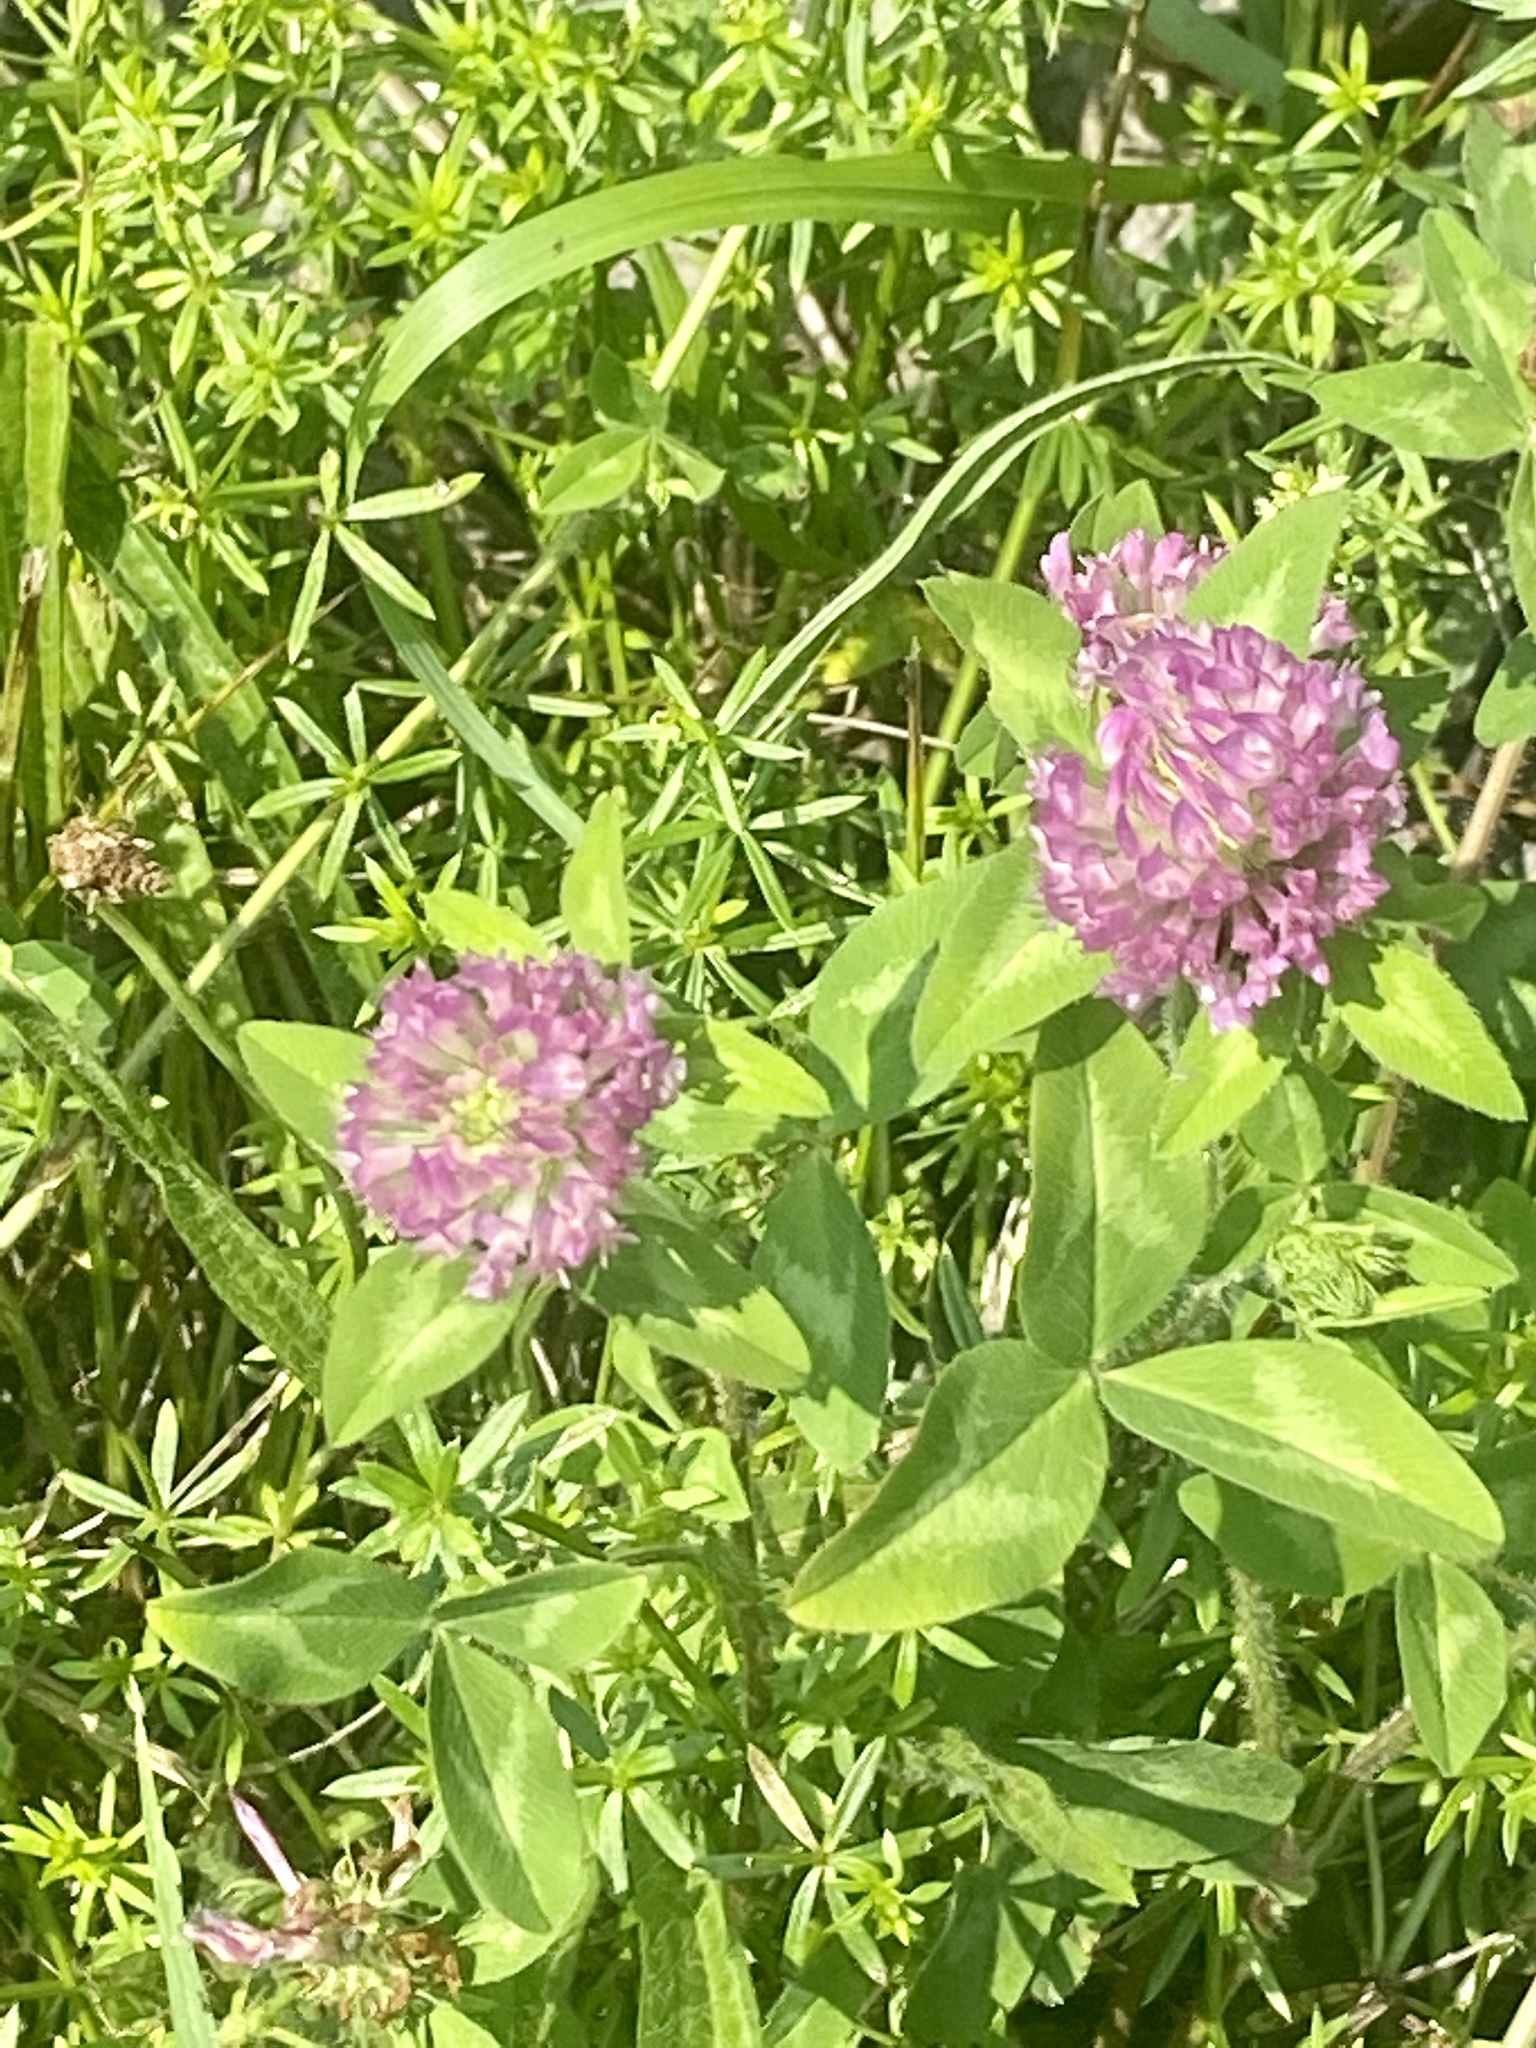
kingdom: Plantae
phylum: Tracheophyta
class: Magnoliopsida
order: Fabales
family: Fabaceae
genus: Trifolium
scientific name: Trifolium pratense
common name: Red clover
